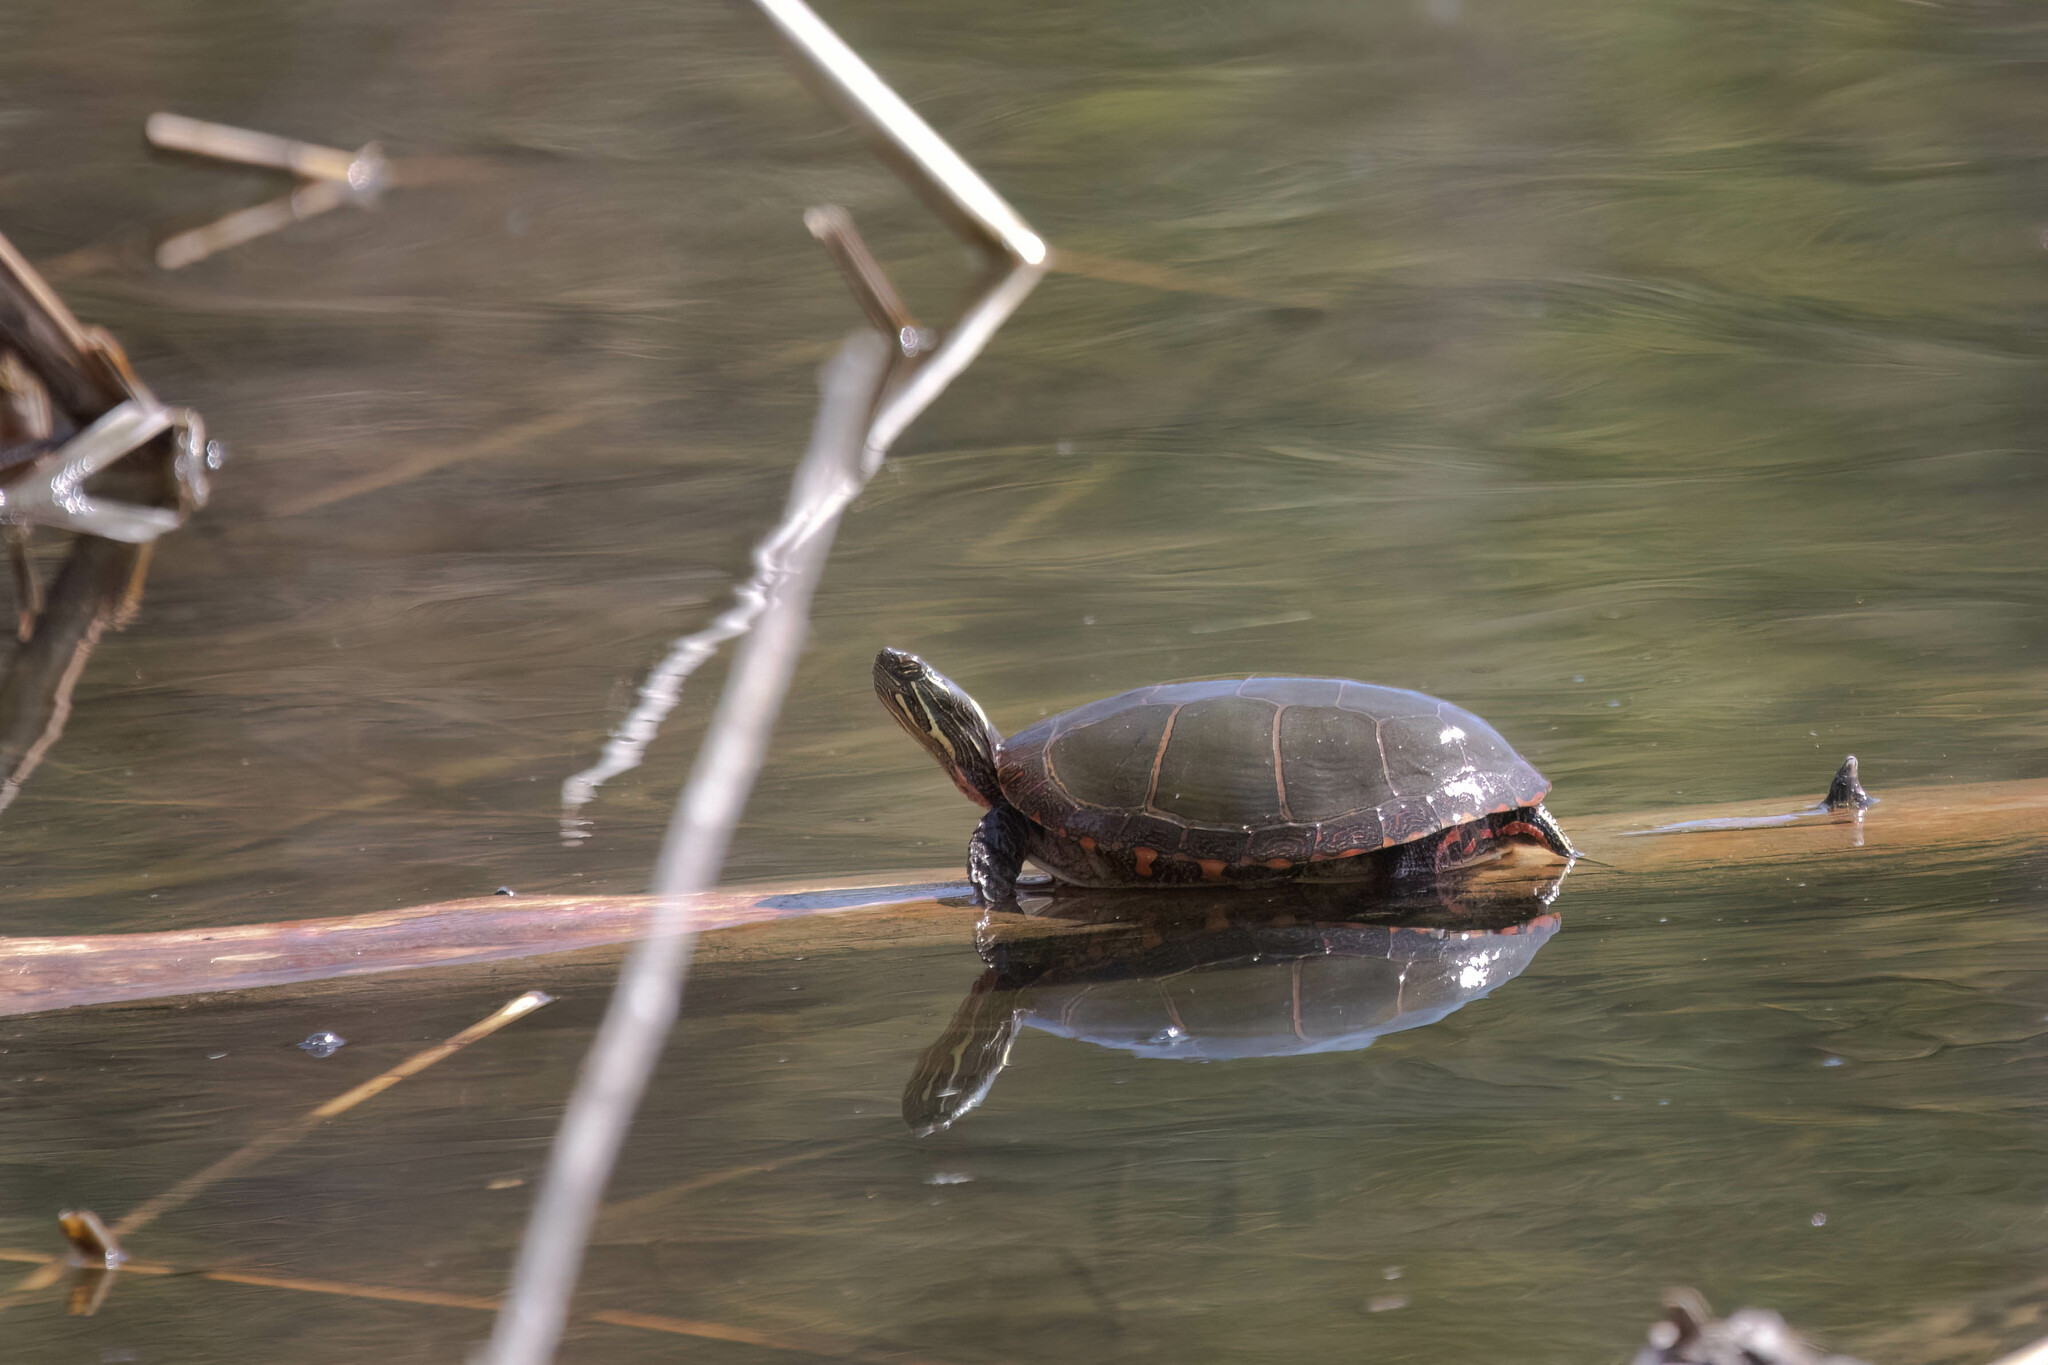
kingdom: Animalia
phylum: Chordata
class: Testudines
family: Emydidae
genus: Chrysemys
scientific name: Chrysemys picta
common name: Painted turtle
